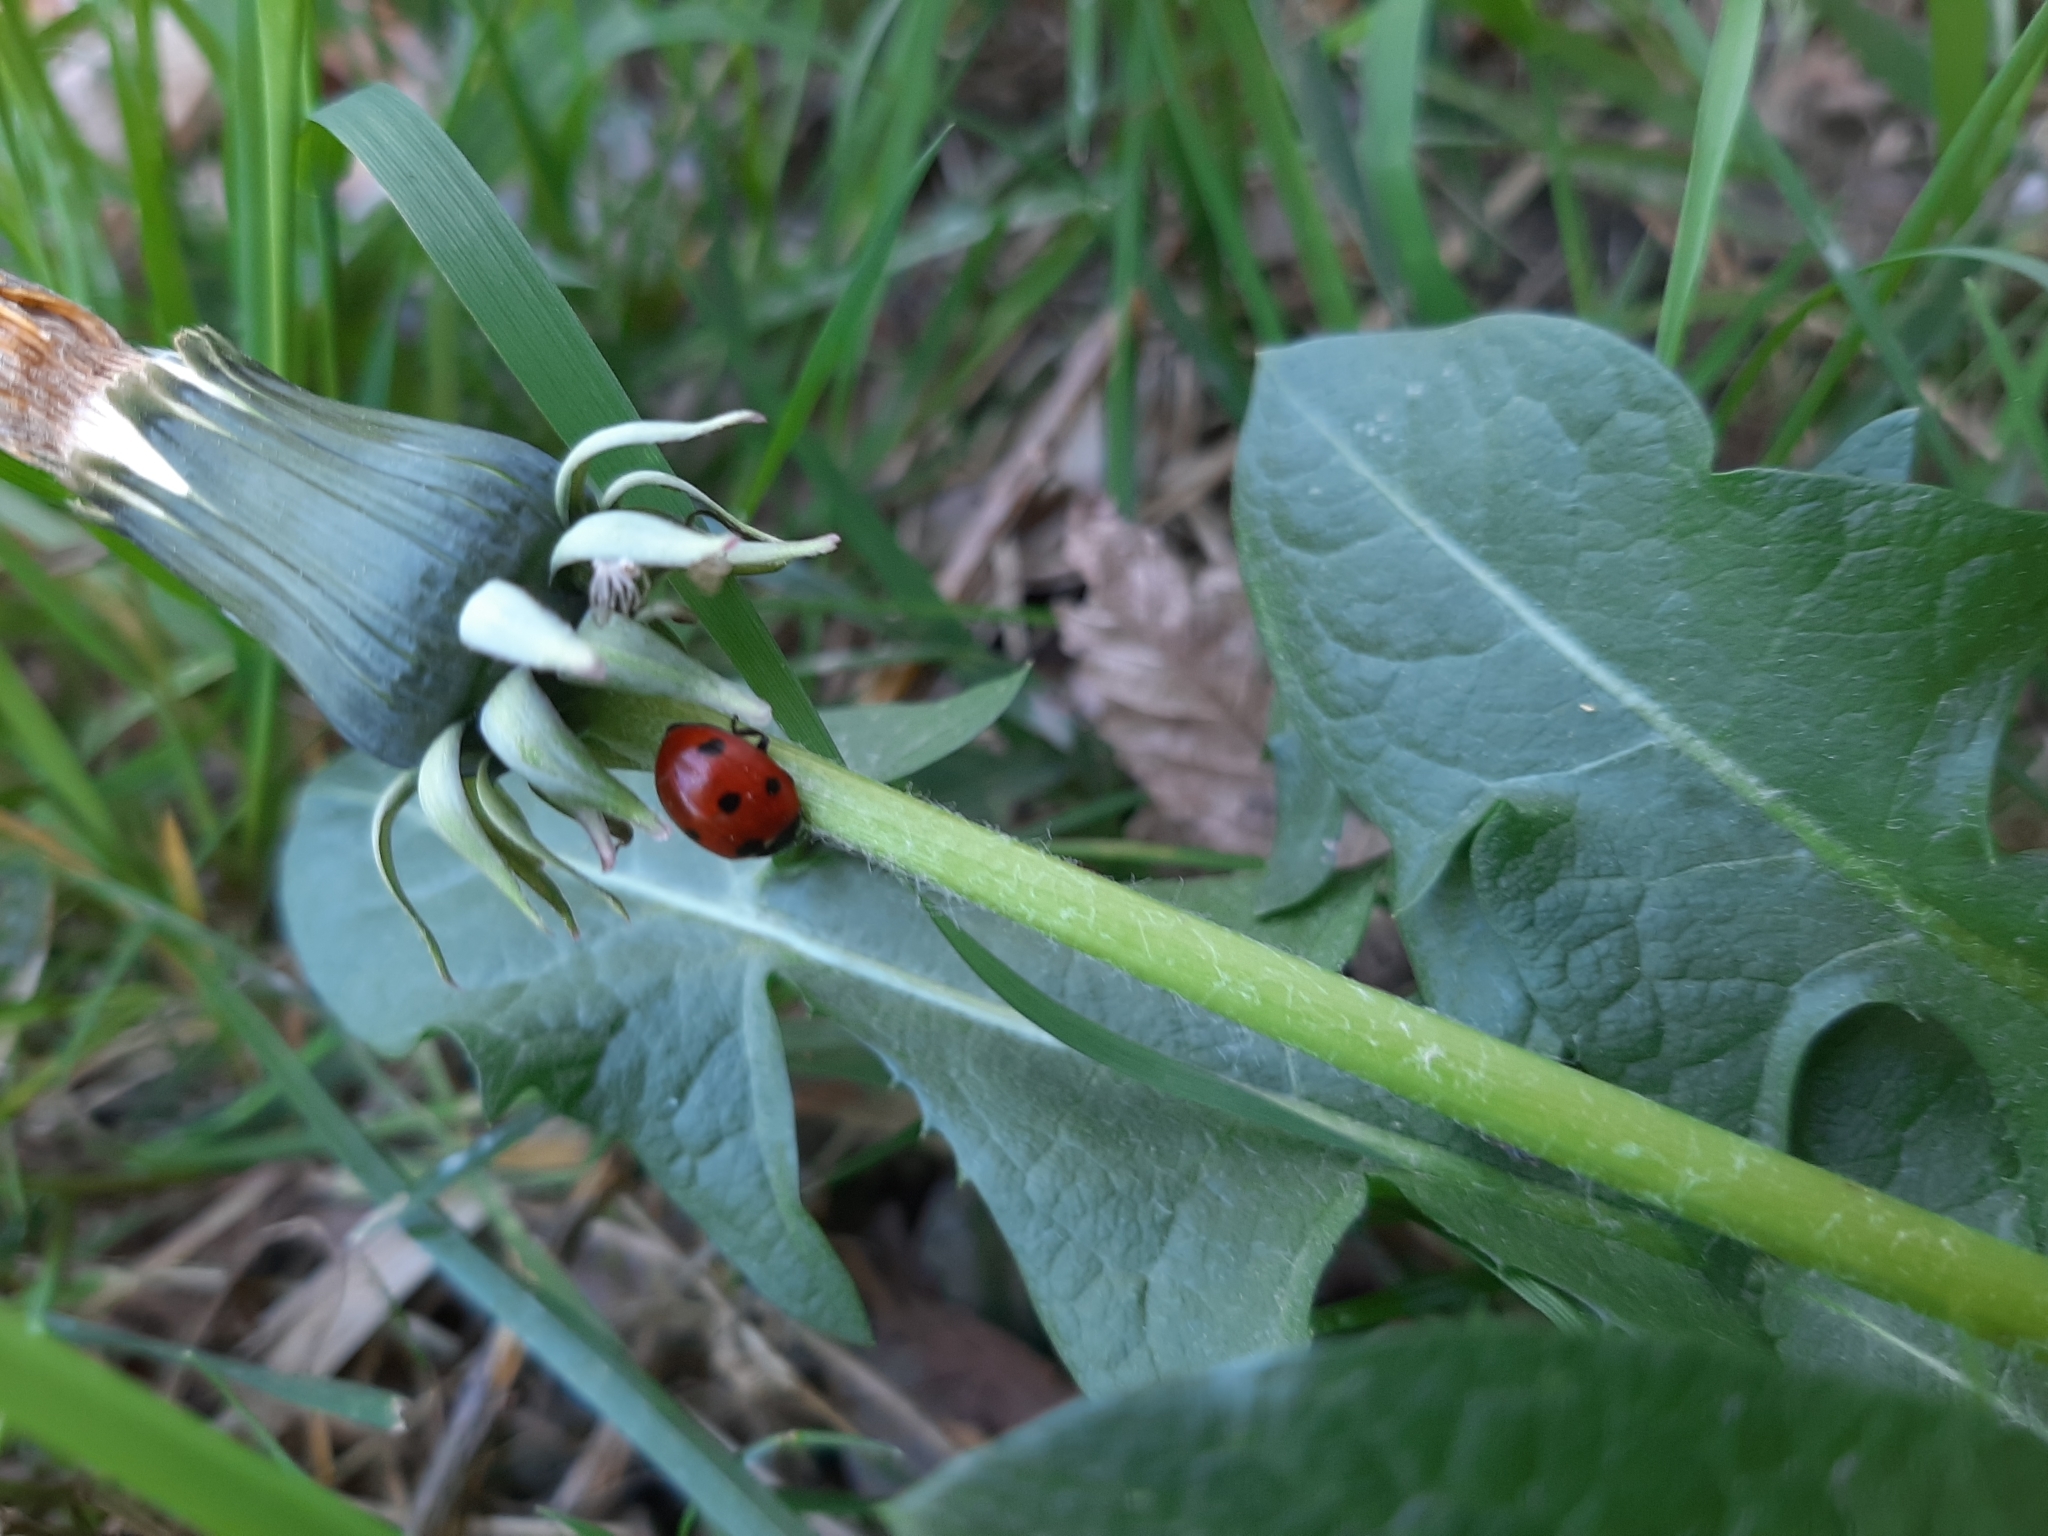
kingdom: Animalia
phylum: Arthropoda
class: Insecta
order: Coleoptera
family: Coccinellidae
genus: Coccinella
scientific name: Coccinella septempunctata
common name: Sevenspotted lady beetle
